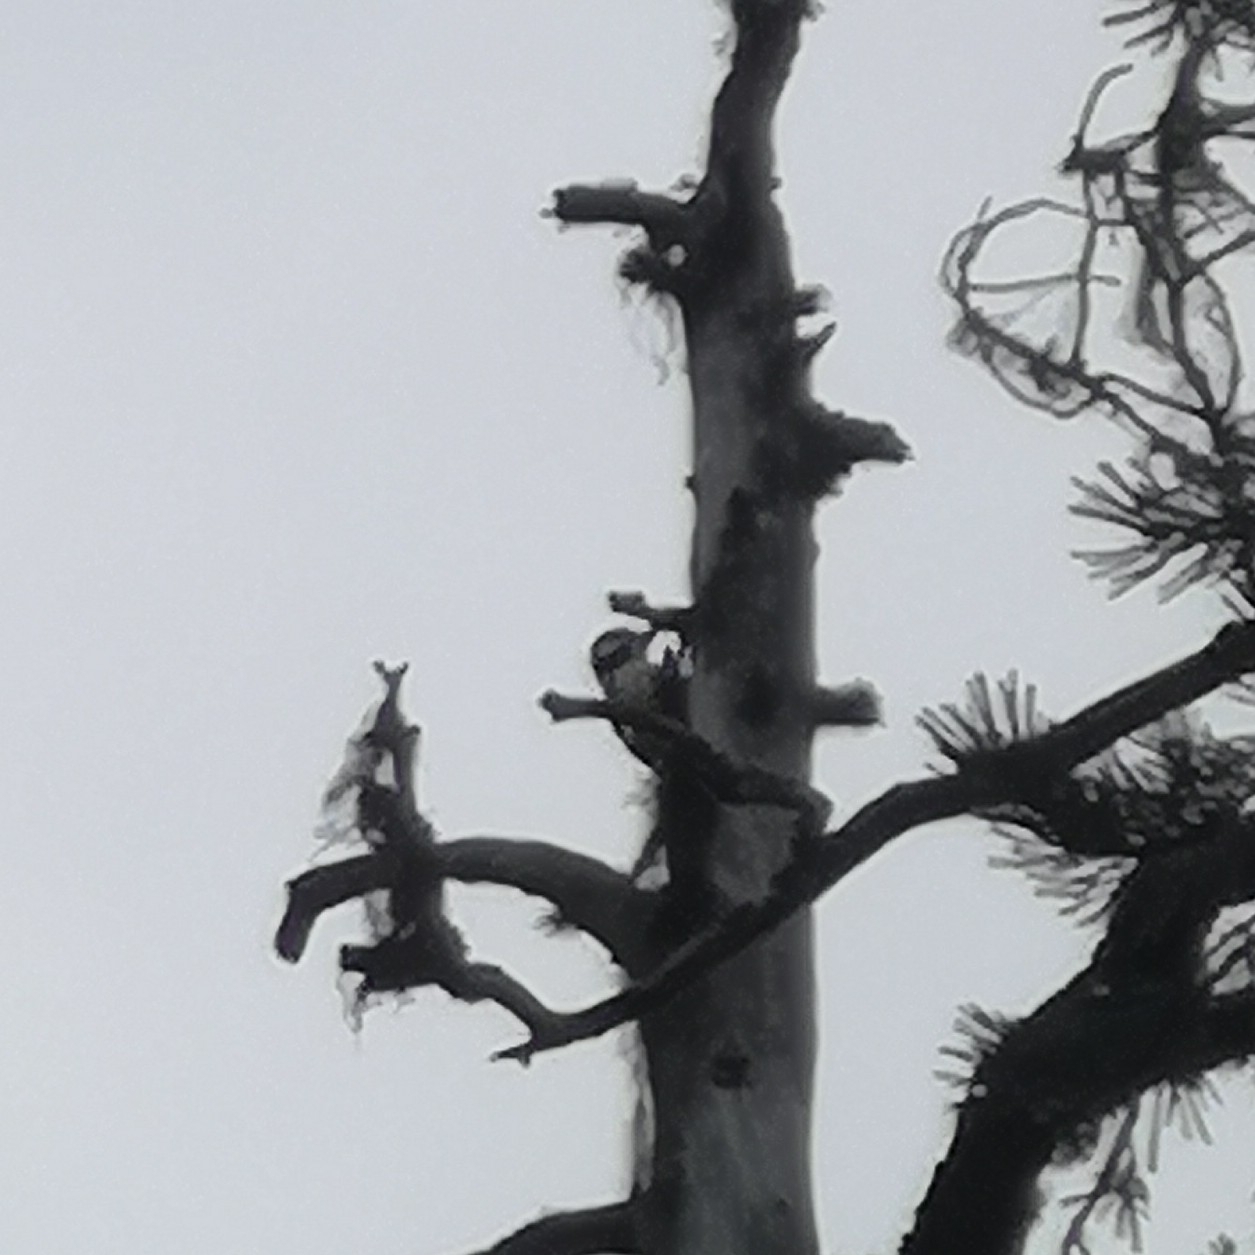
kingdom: Animalia
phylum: Chordata
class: Aves
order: Piciformes
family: Picidae
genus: Dendrocopos
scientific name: Dendrocopos major
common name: Great spotted woodpecker
